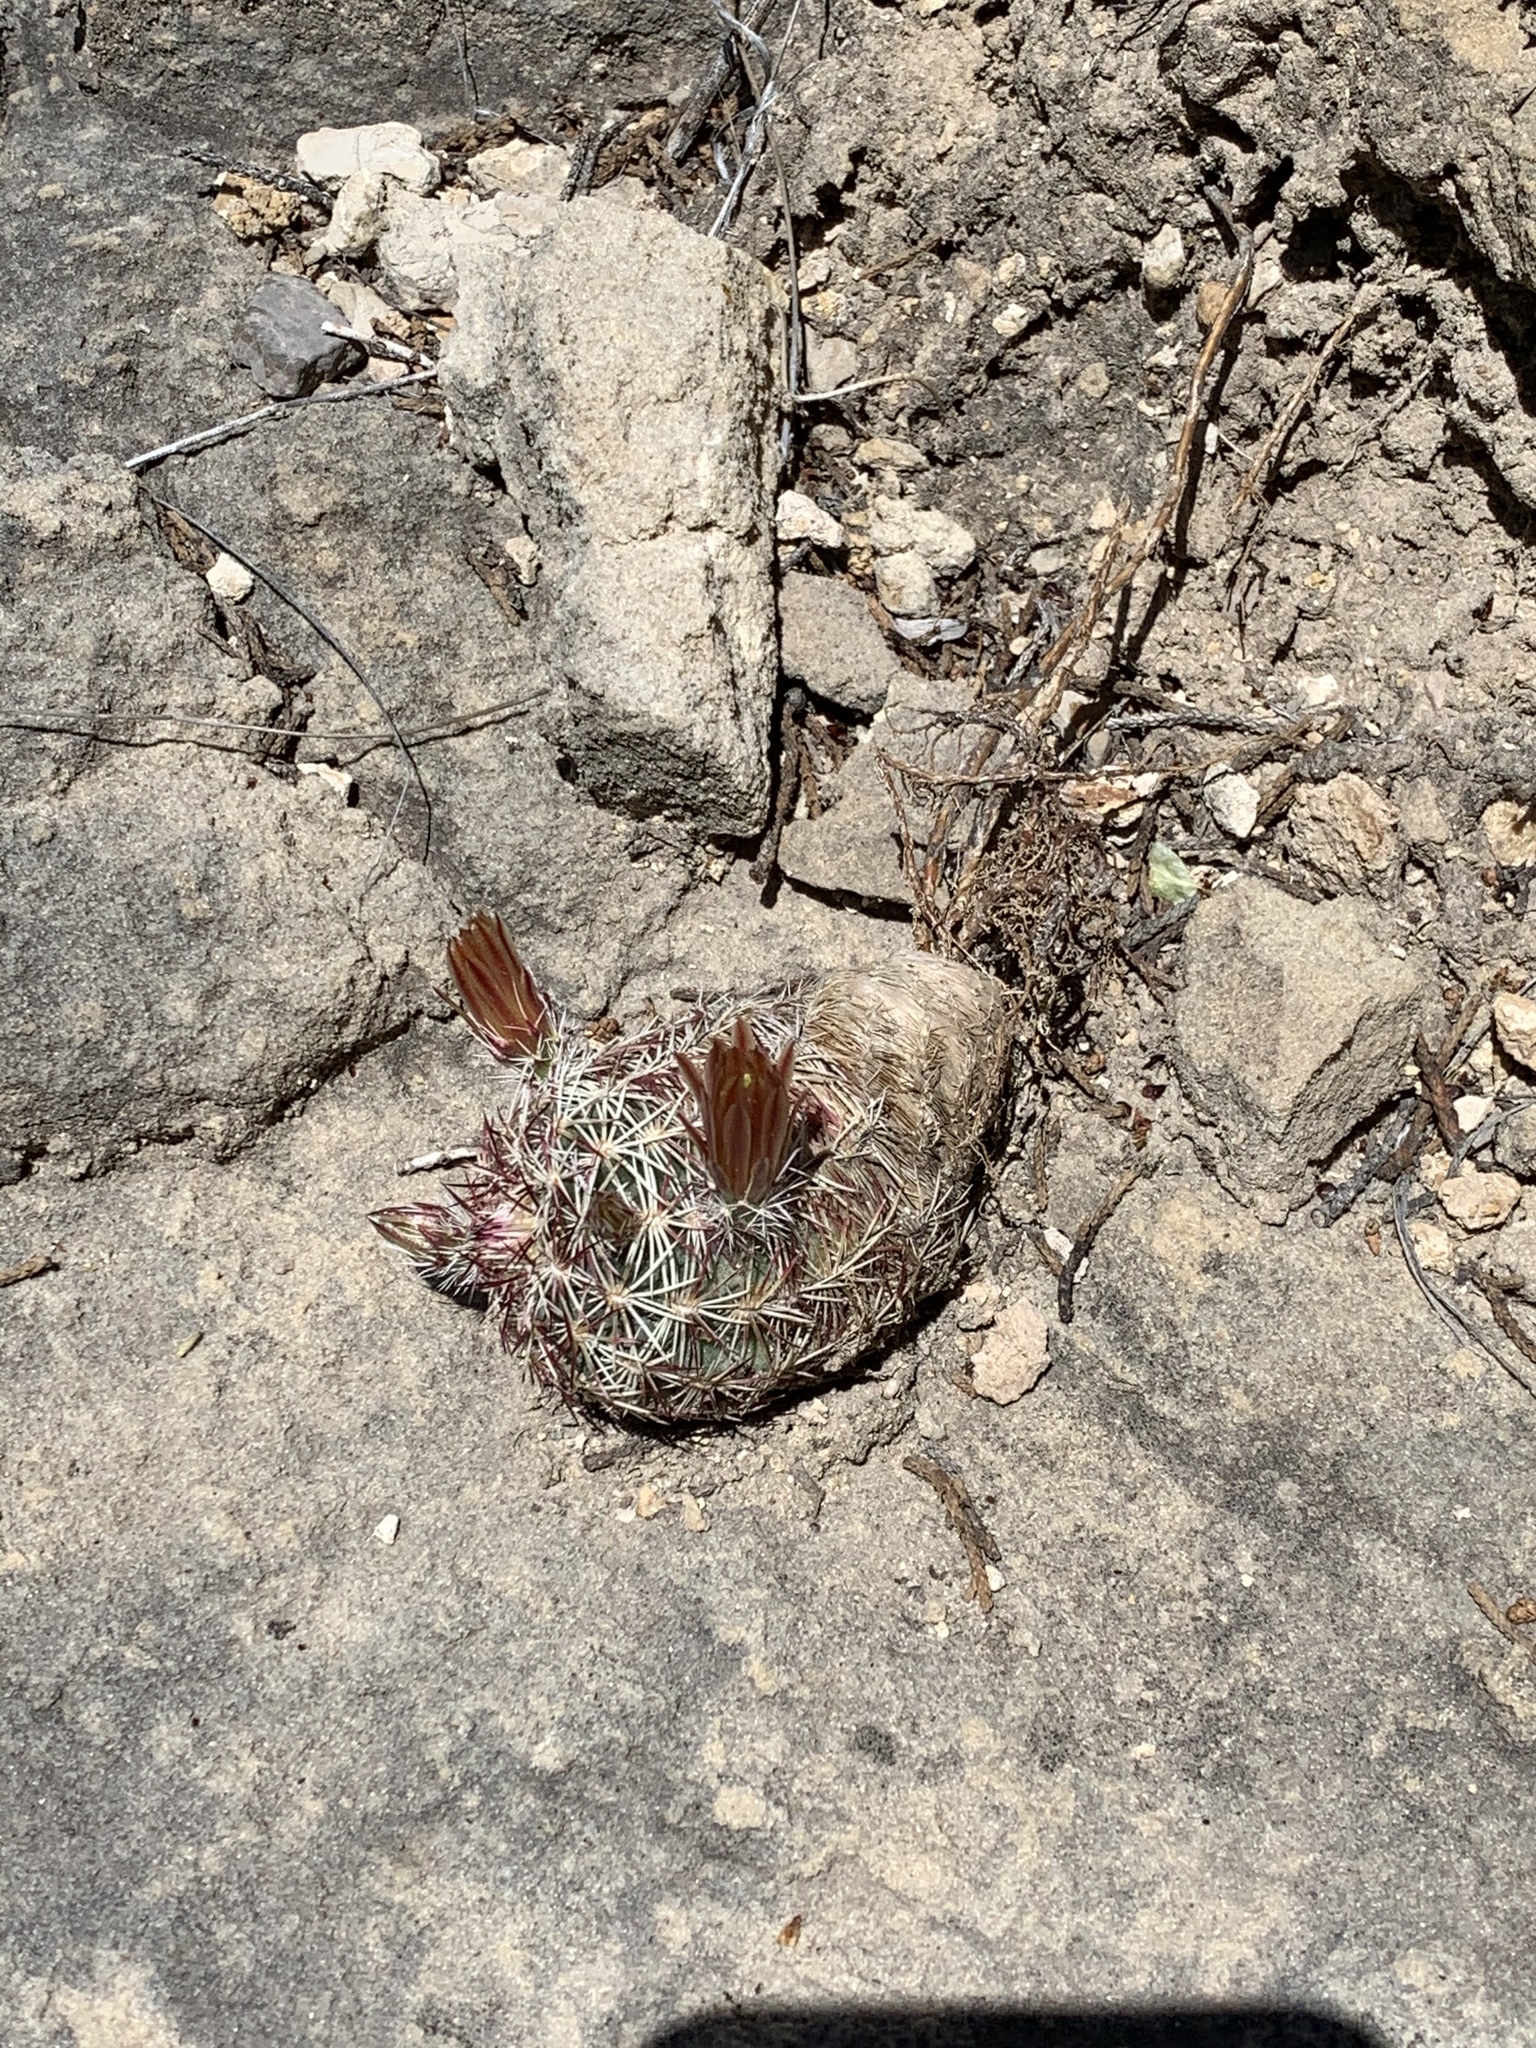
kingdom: Plantae
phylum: Tracheophyta
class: Magnoliopsida
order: Caryophyllales
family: Cactaceae
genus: Echinocereus
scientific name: Echinocereus viridiflorus
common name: Nylon hedgehog cactus
